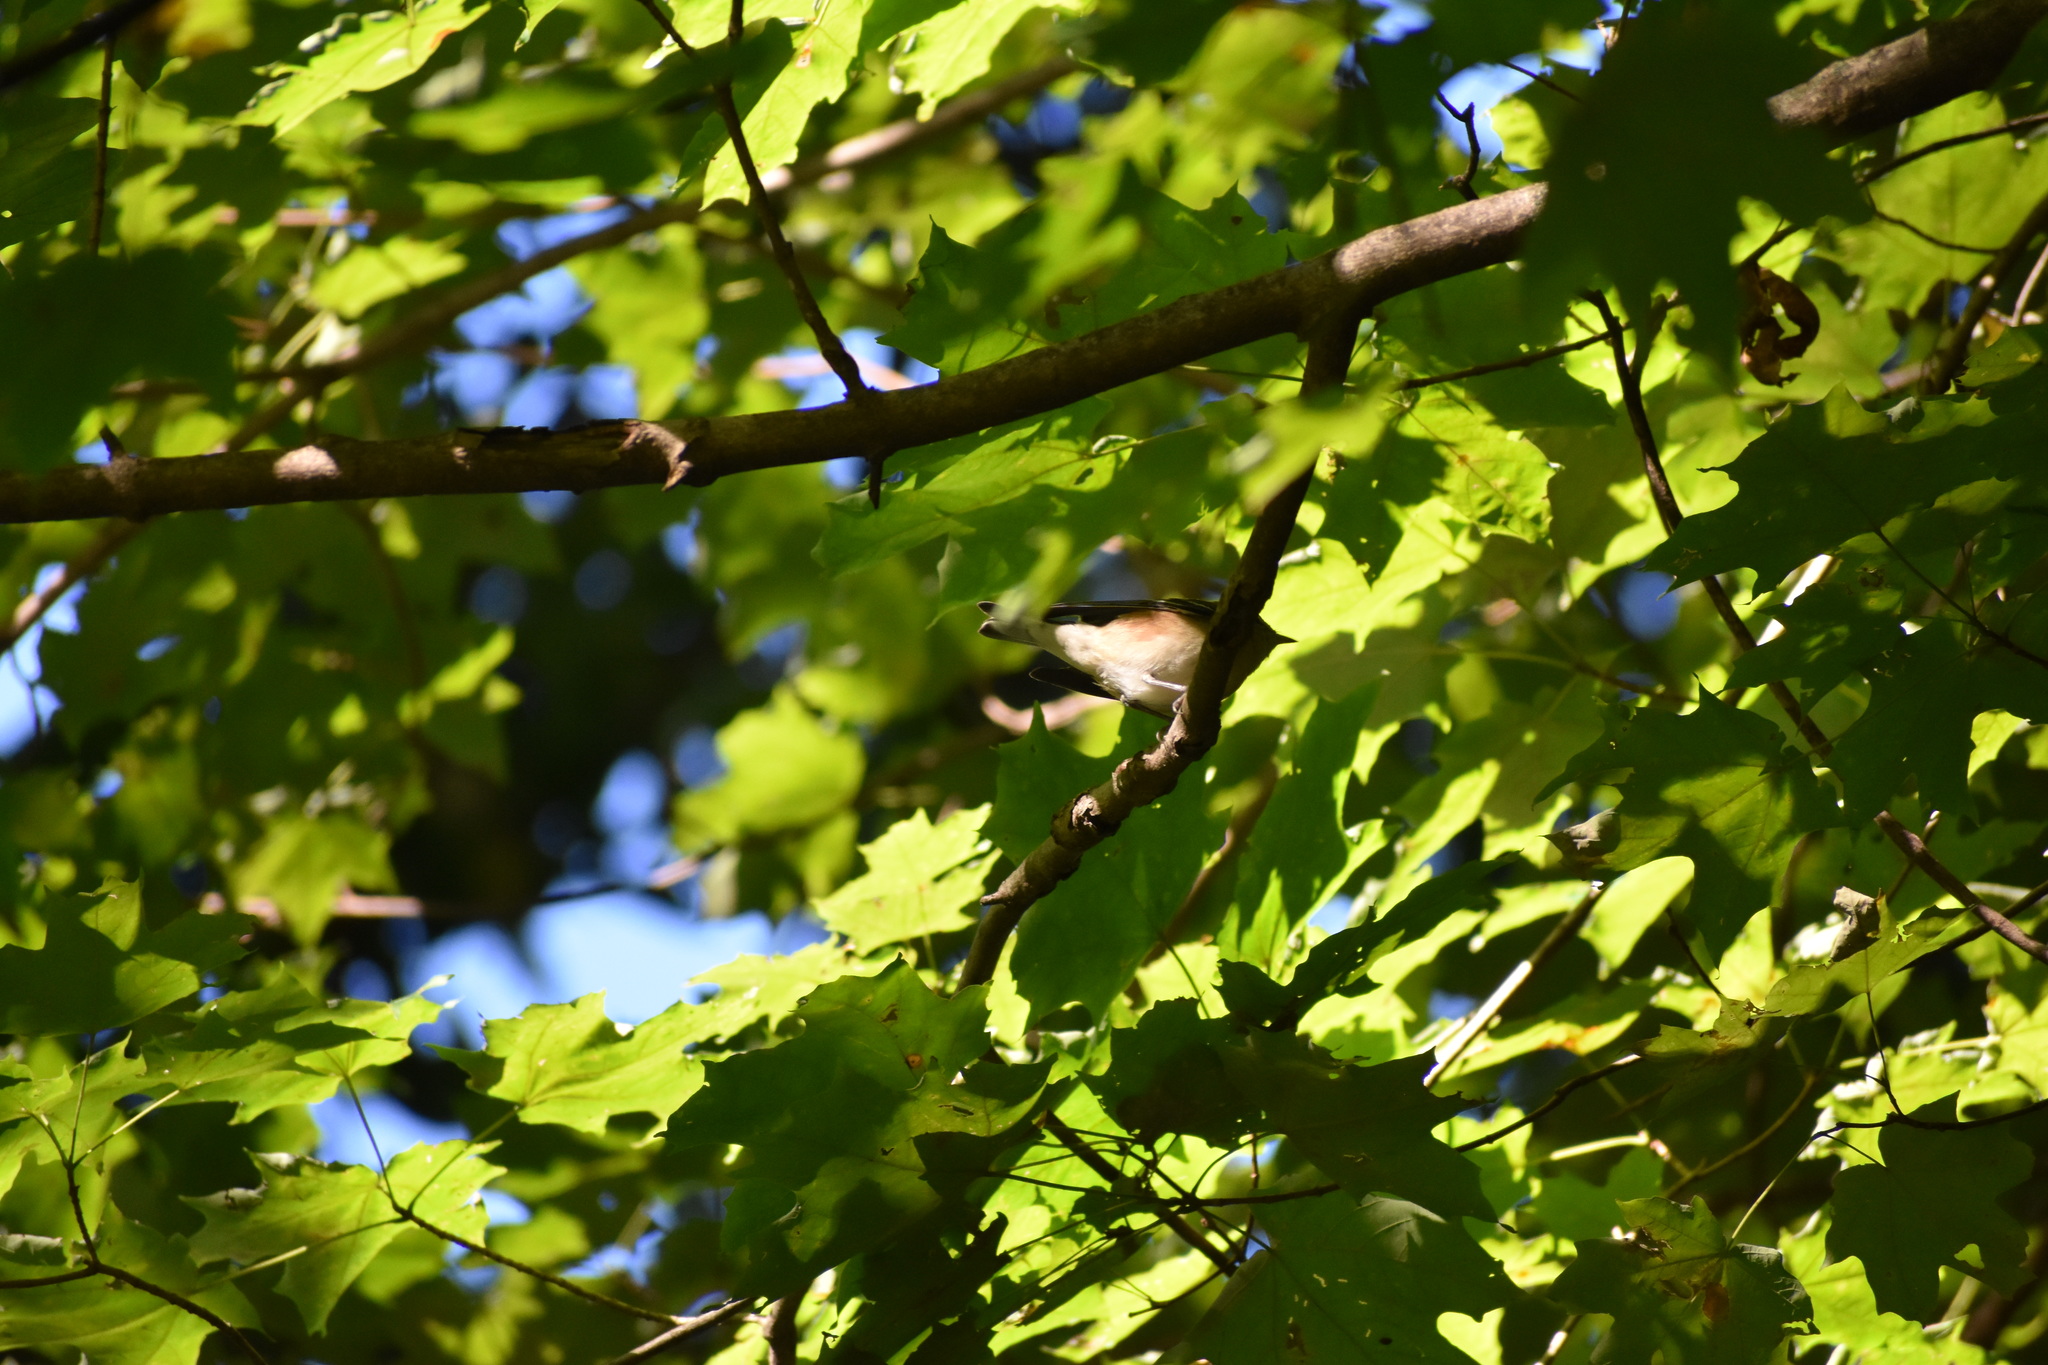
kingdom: Animalia
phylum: Chordata
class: Aves
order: Passeriformes
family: Parulidae
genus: Setophaga
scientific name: Setophaga castanea
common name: Bay-breasted warbler
